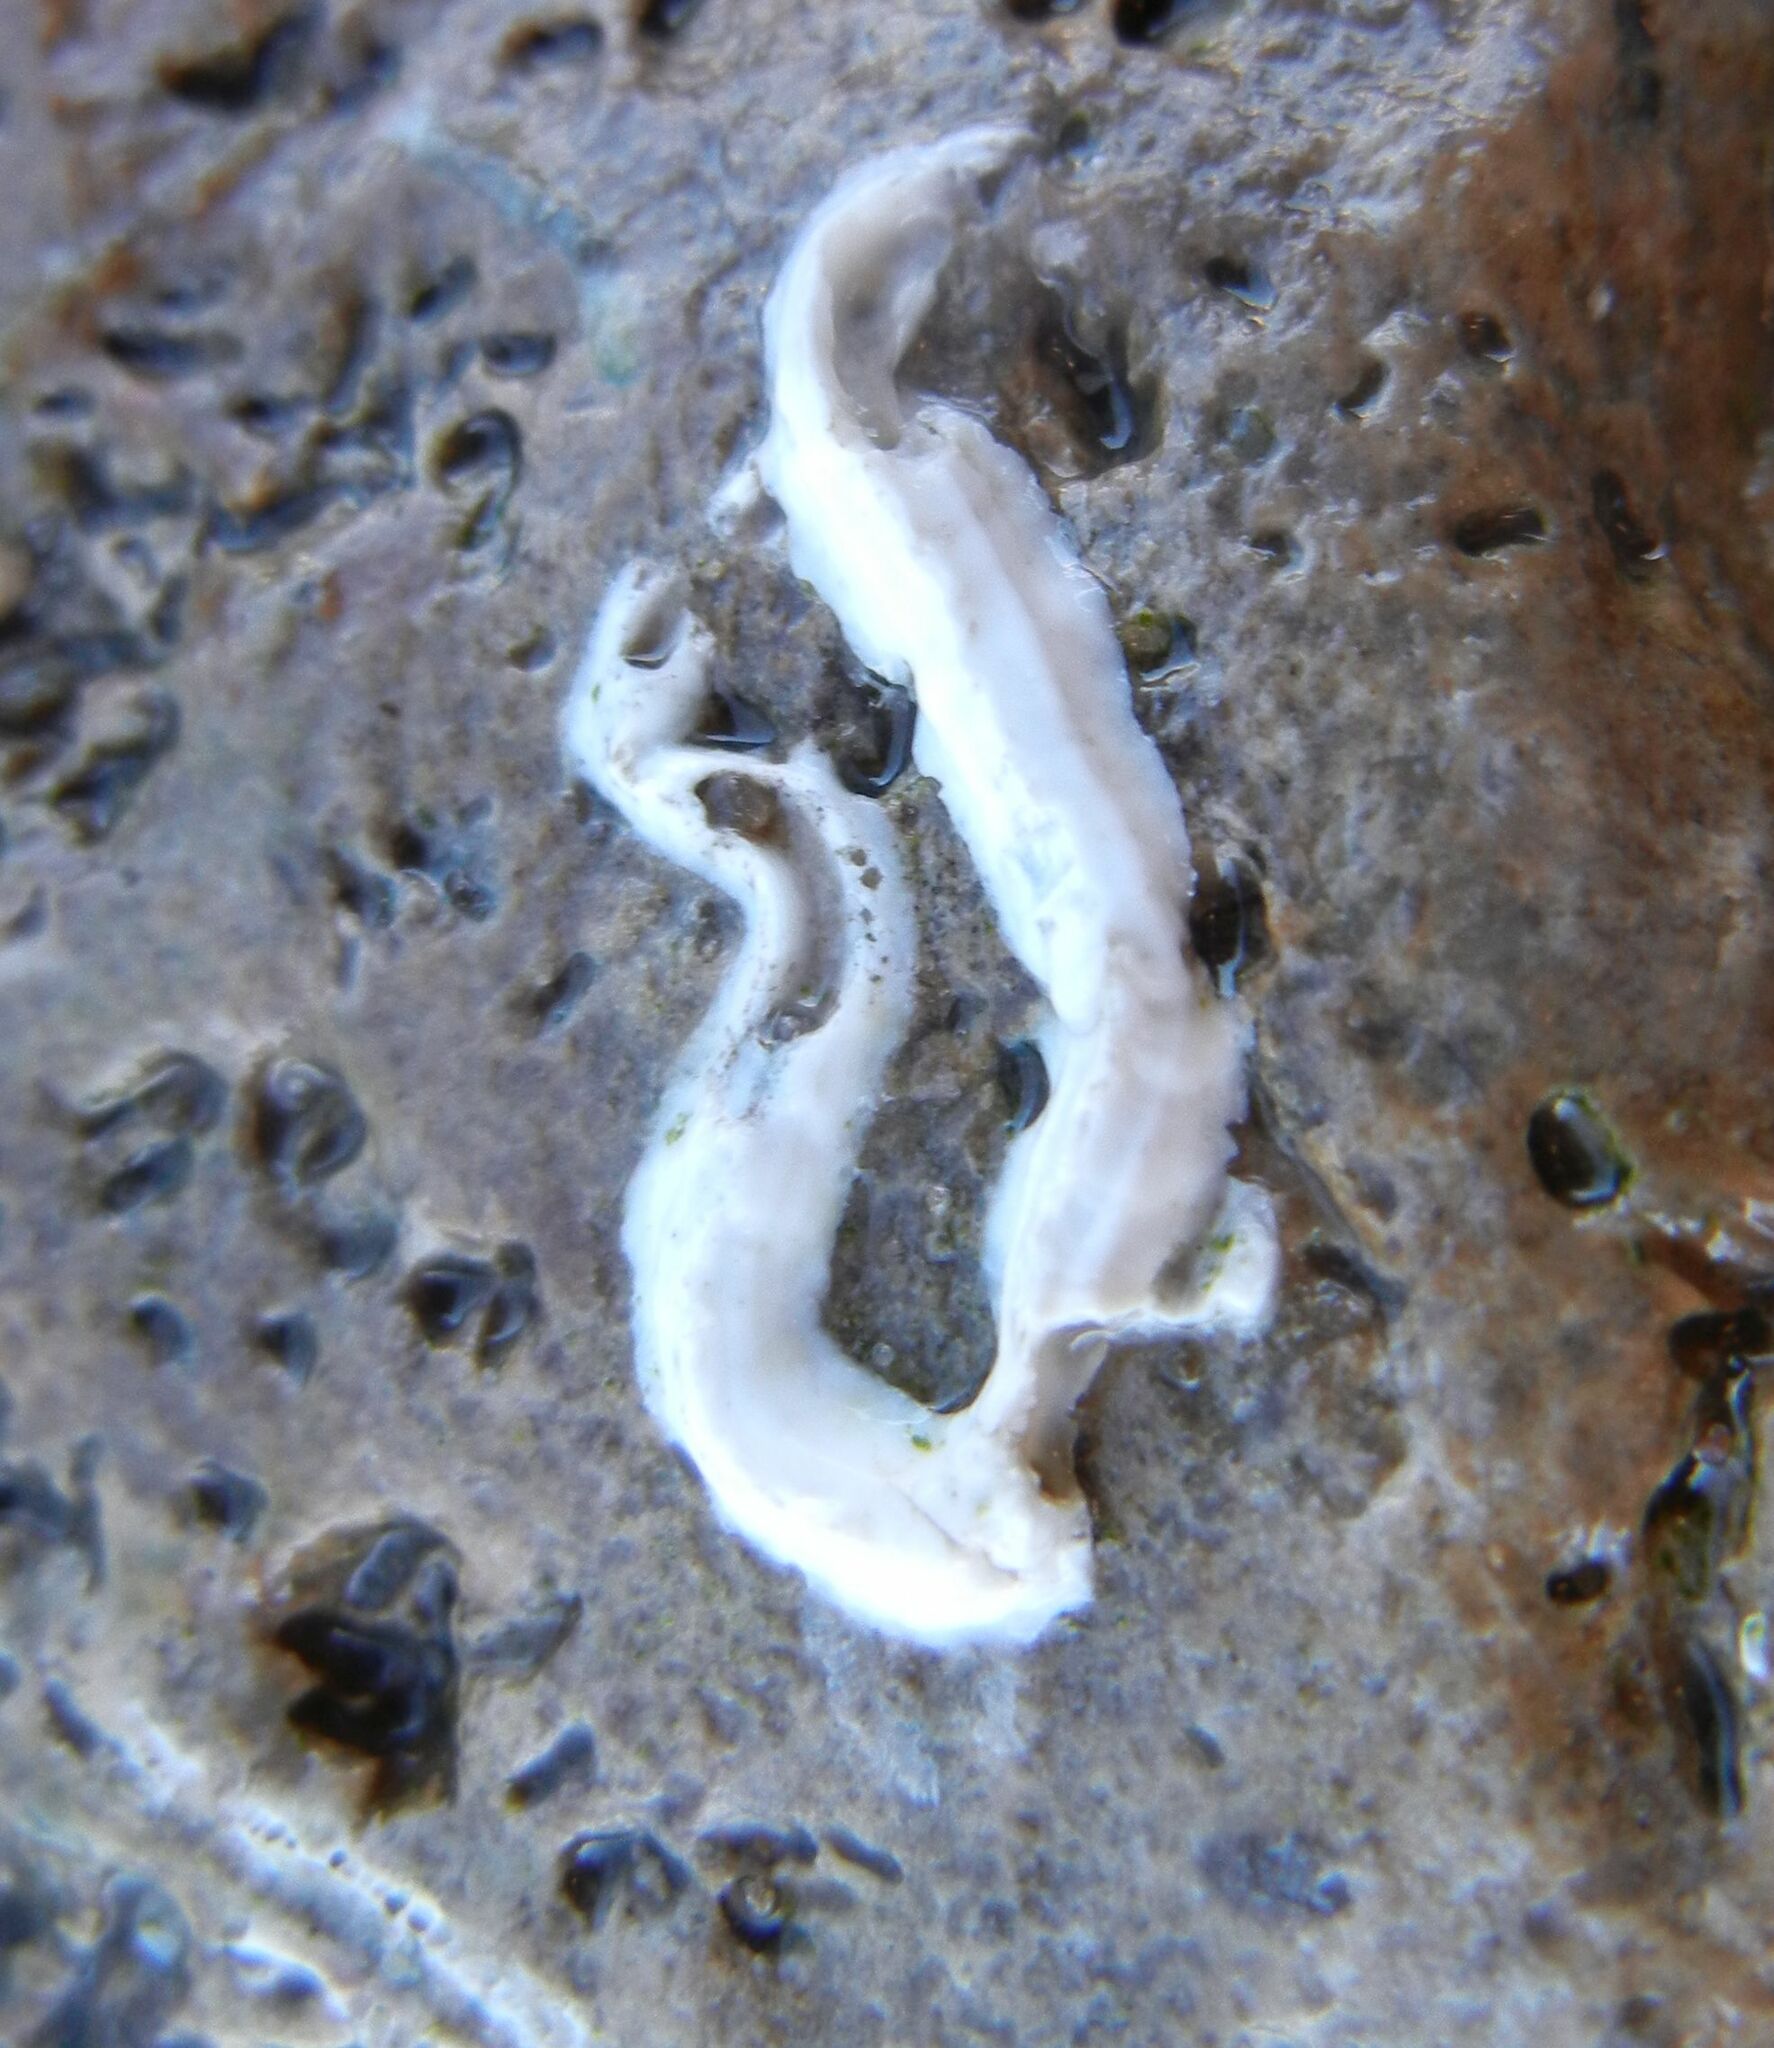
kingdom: Animalia
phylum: Annelida
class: Polychaeta
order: Sabellida
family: Serpulidae
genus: Spirobranchus
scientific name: Spirobranchus lamarcki
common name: Keelworm
